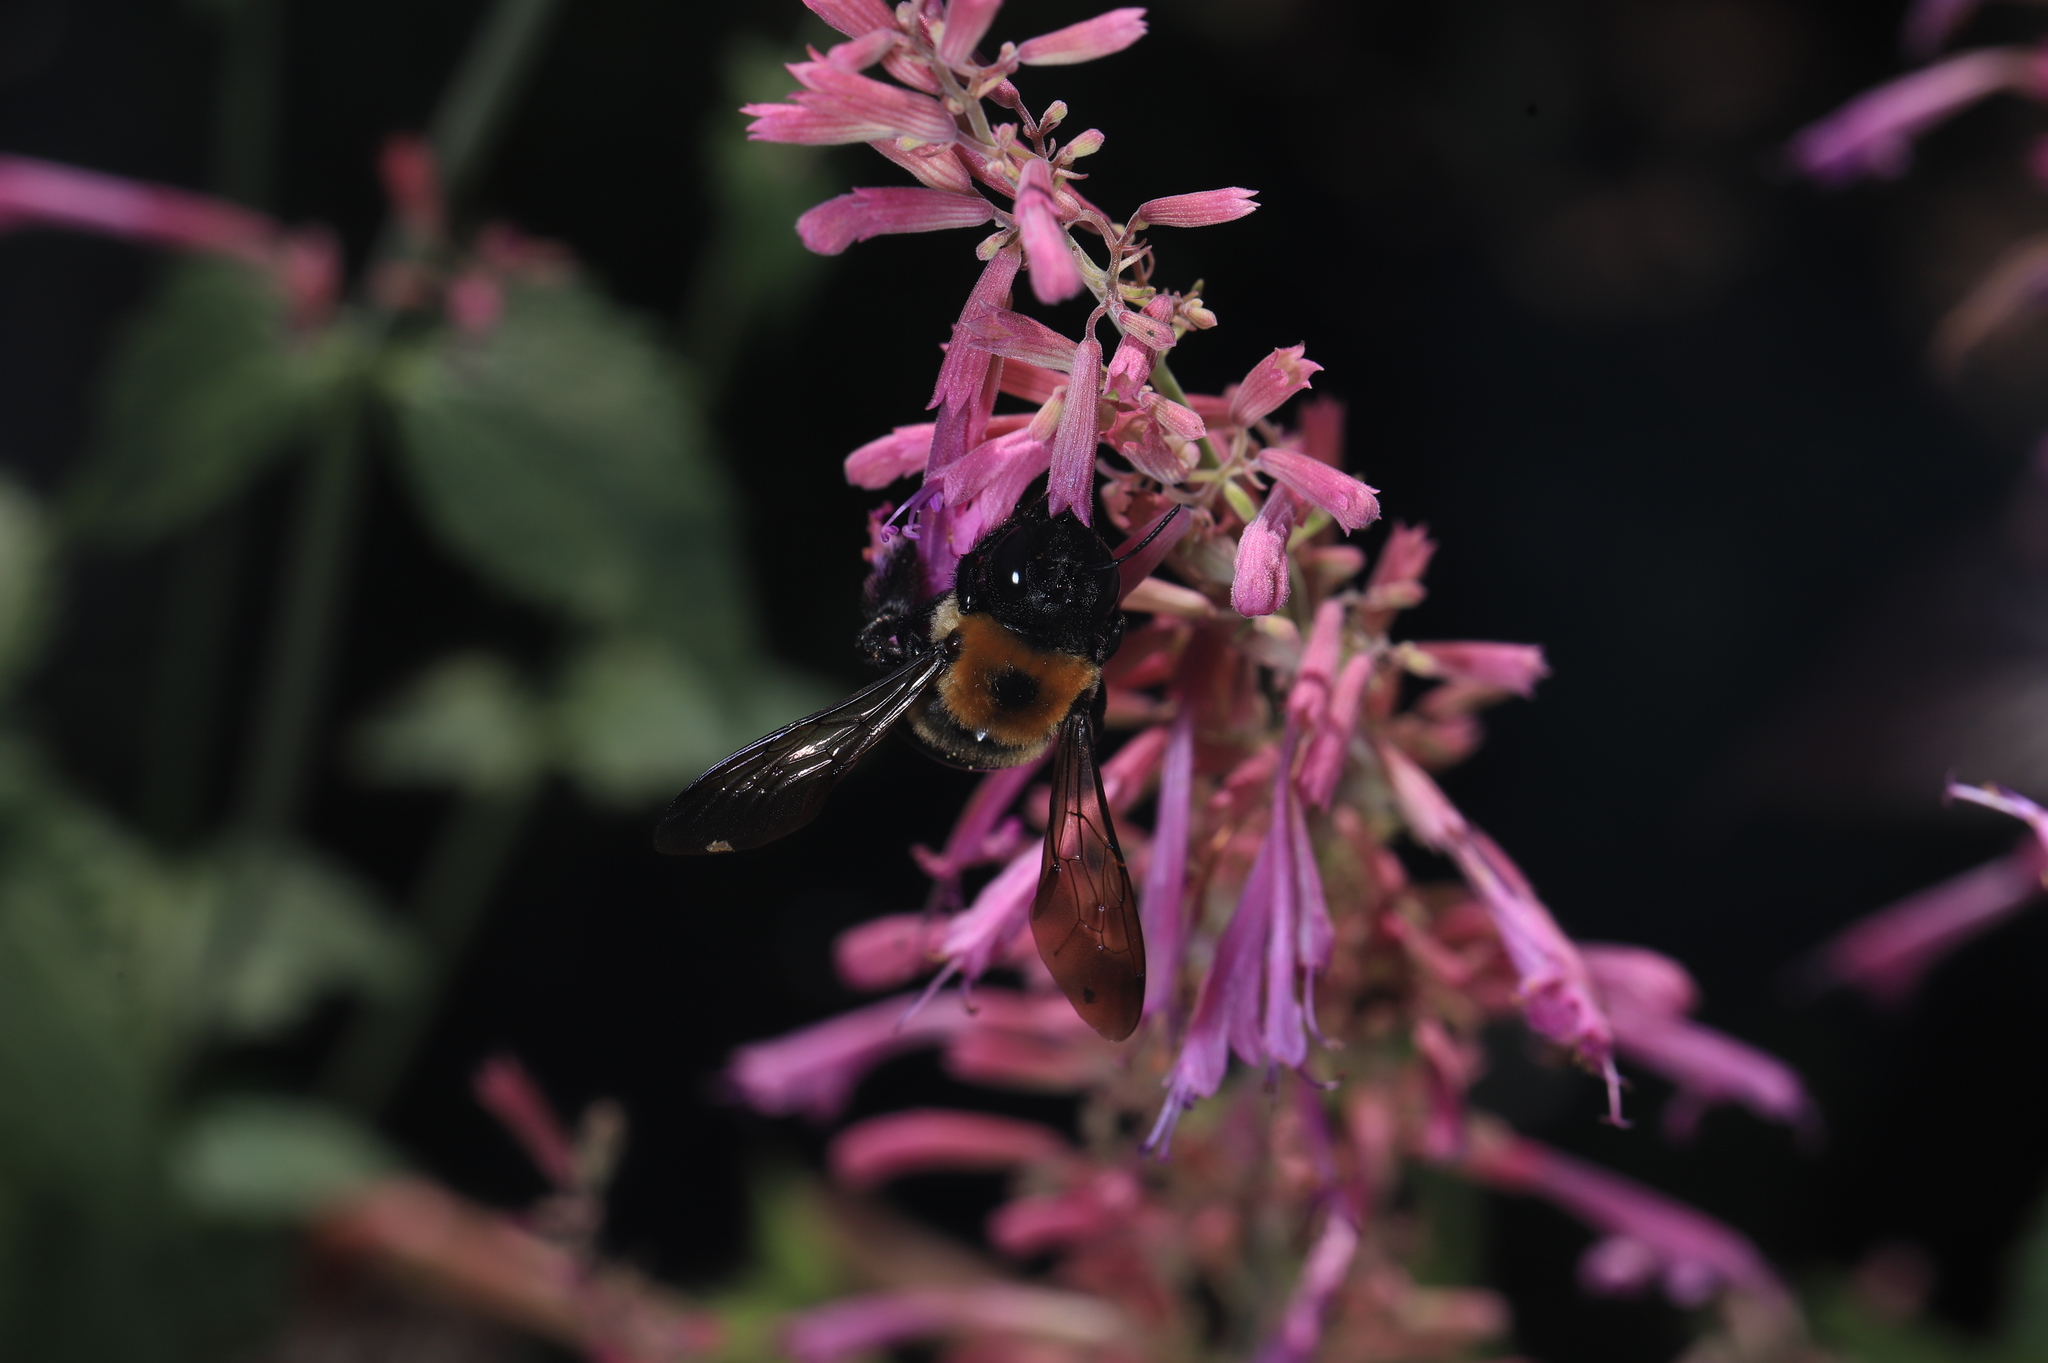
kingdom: Animalia
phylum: Arthropoda
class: Insecta
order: Hymenoptera
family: Apidae
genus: Xylocopa
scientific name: Xylocopa virginica
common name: Carpenter bee
